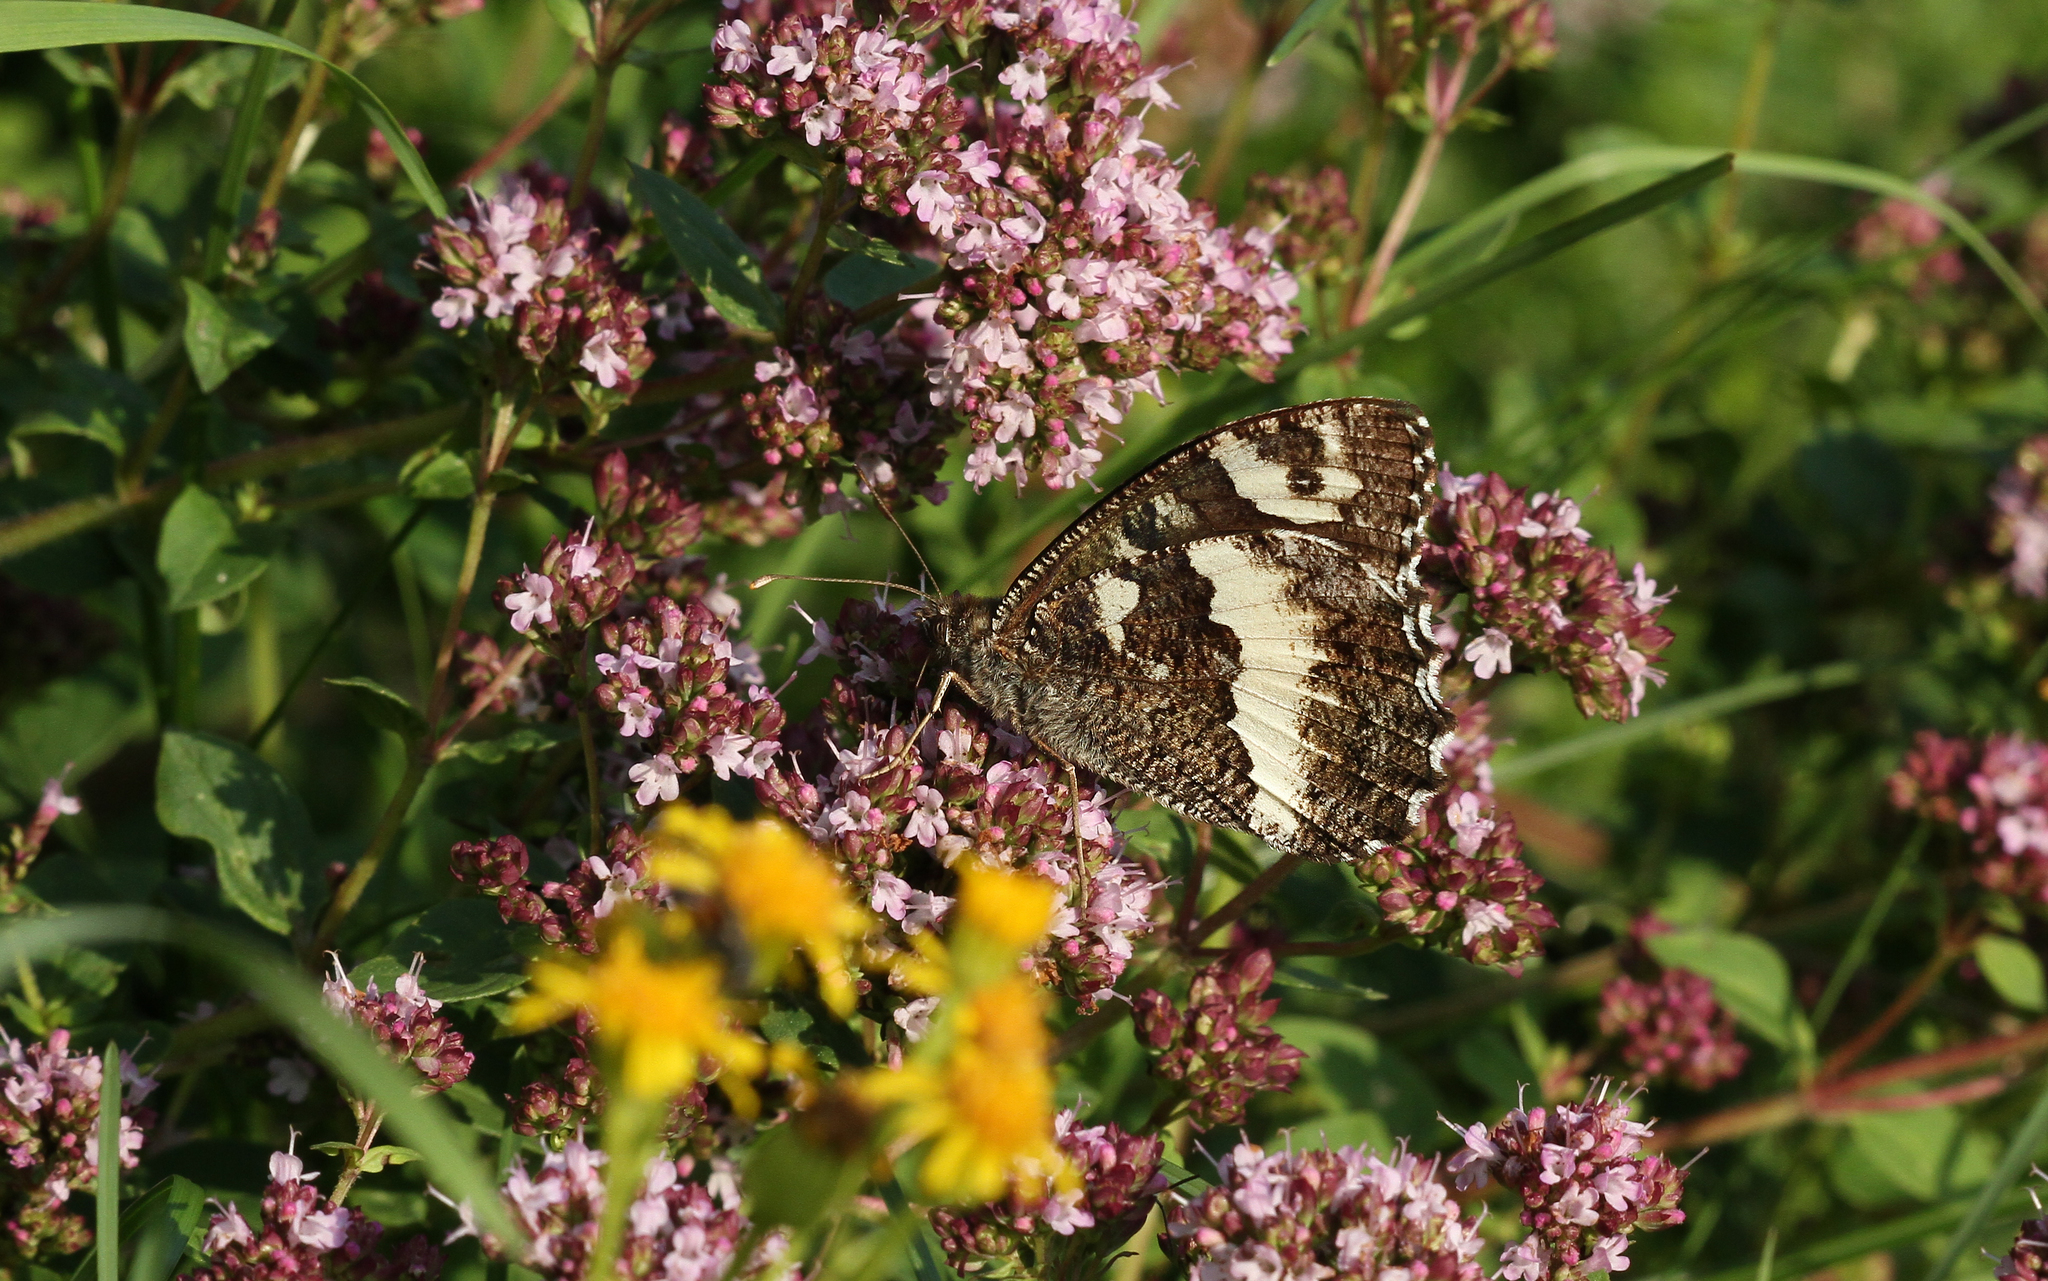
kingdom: Animalia
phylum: Arthropoda
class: Insecta
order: Lepidoptera
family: Lycaenidae
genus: Loweia
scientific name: Loweia tityrus
